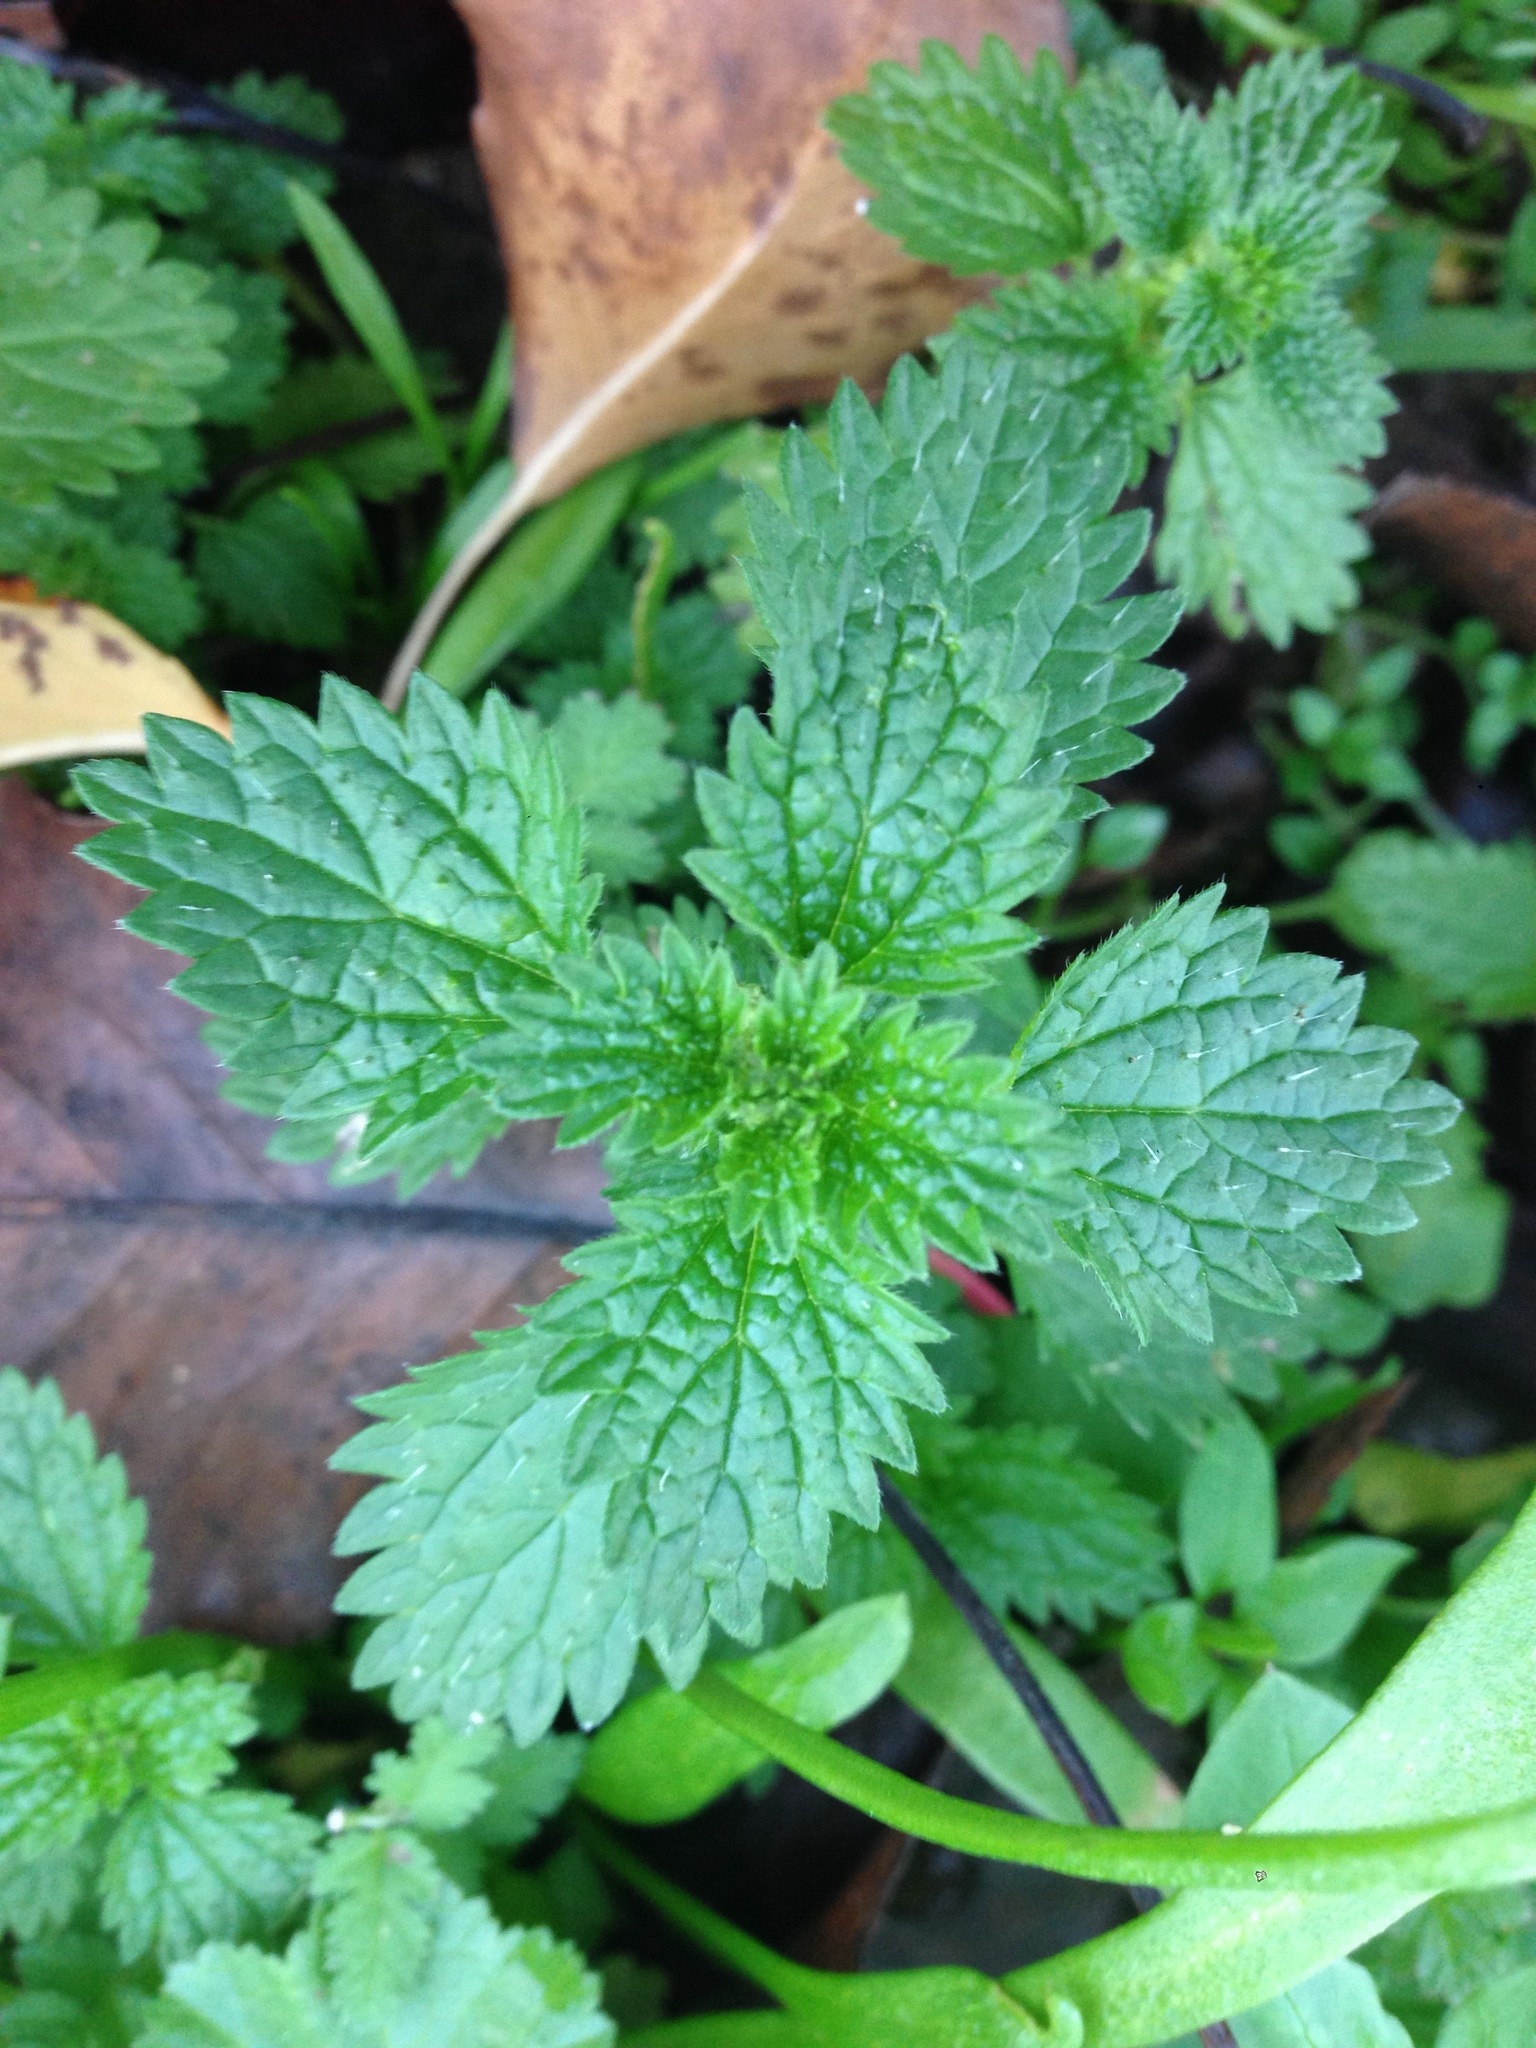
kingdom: Plantae
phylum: Tracheophyta
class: Magnoliopsida
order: Rosales
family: Urticaceae
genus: Urtica
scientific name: Urtica urens
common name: Dwarf nettle
